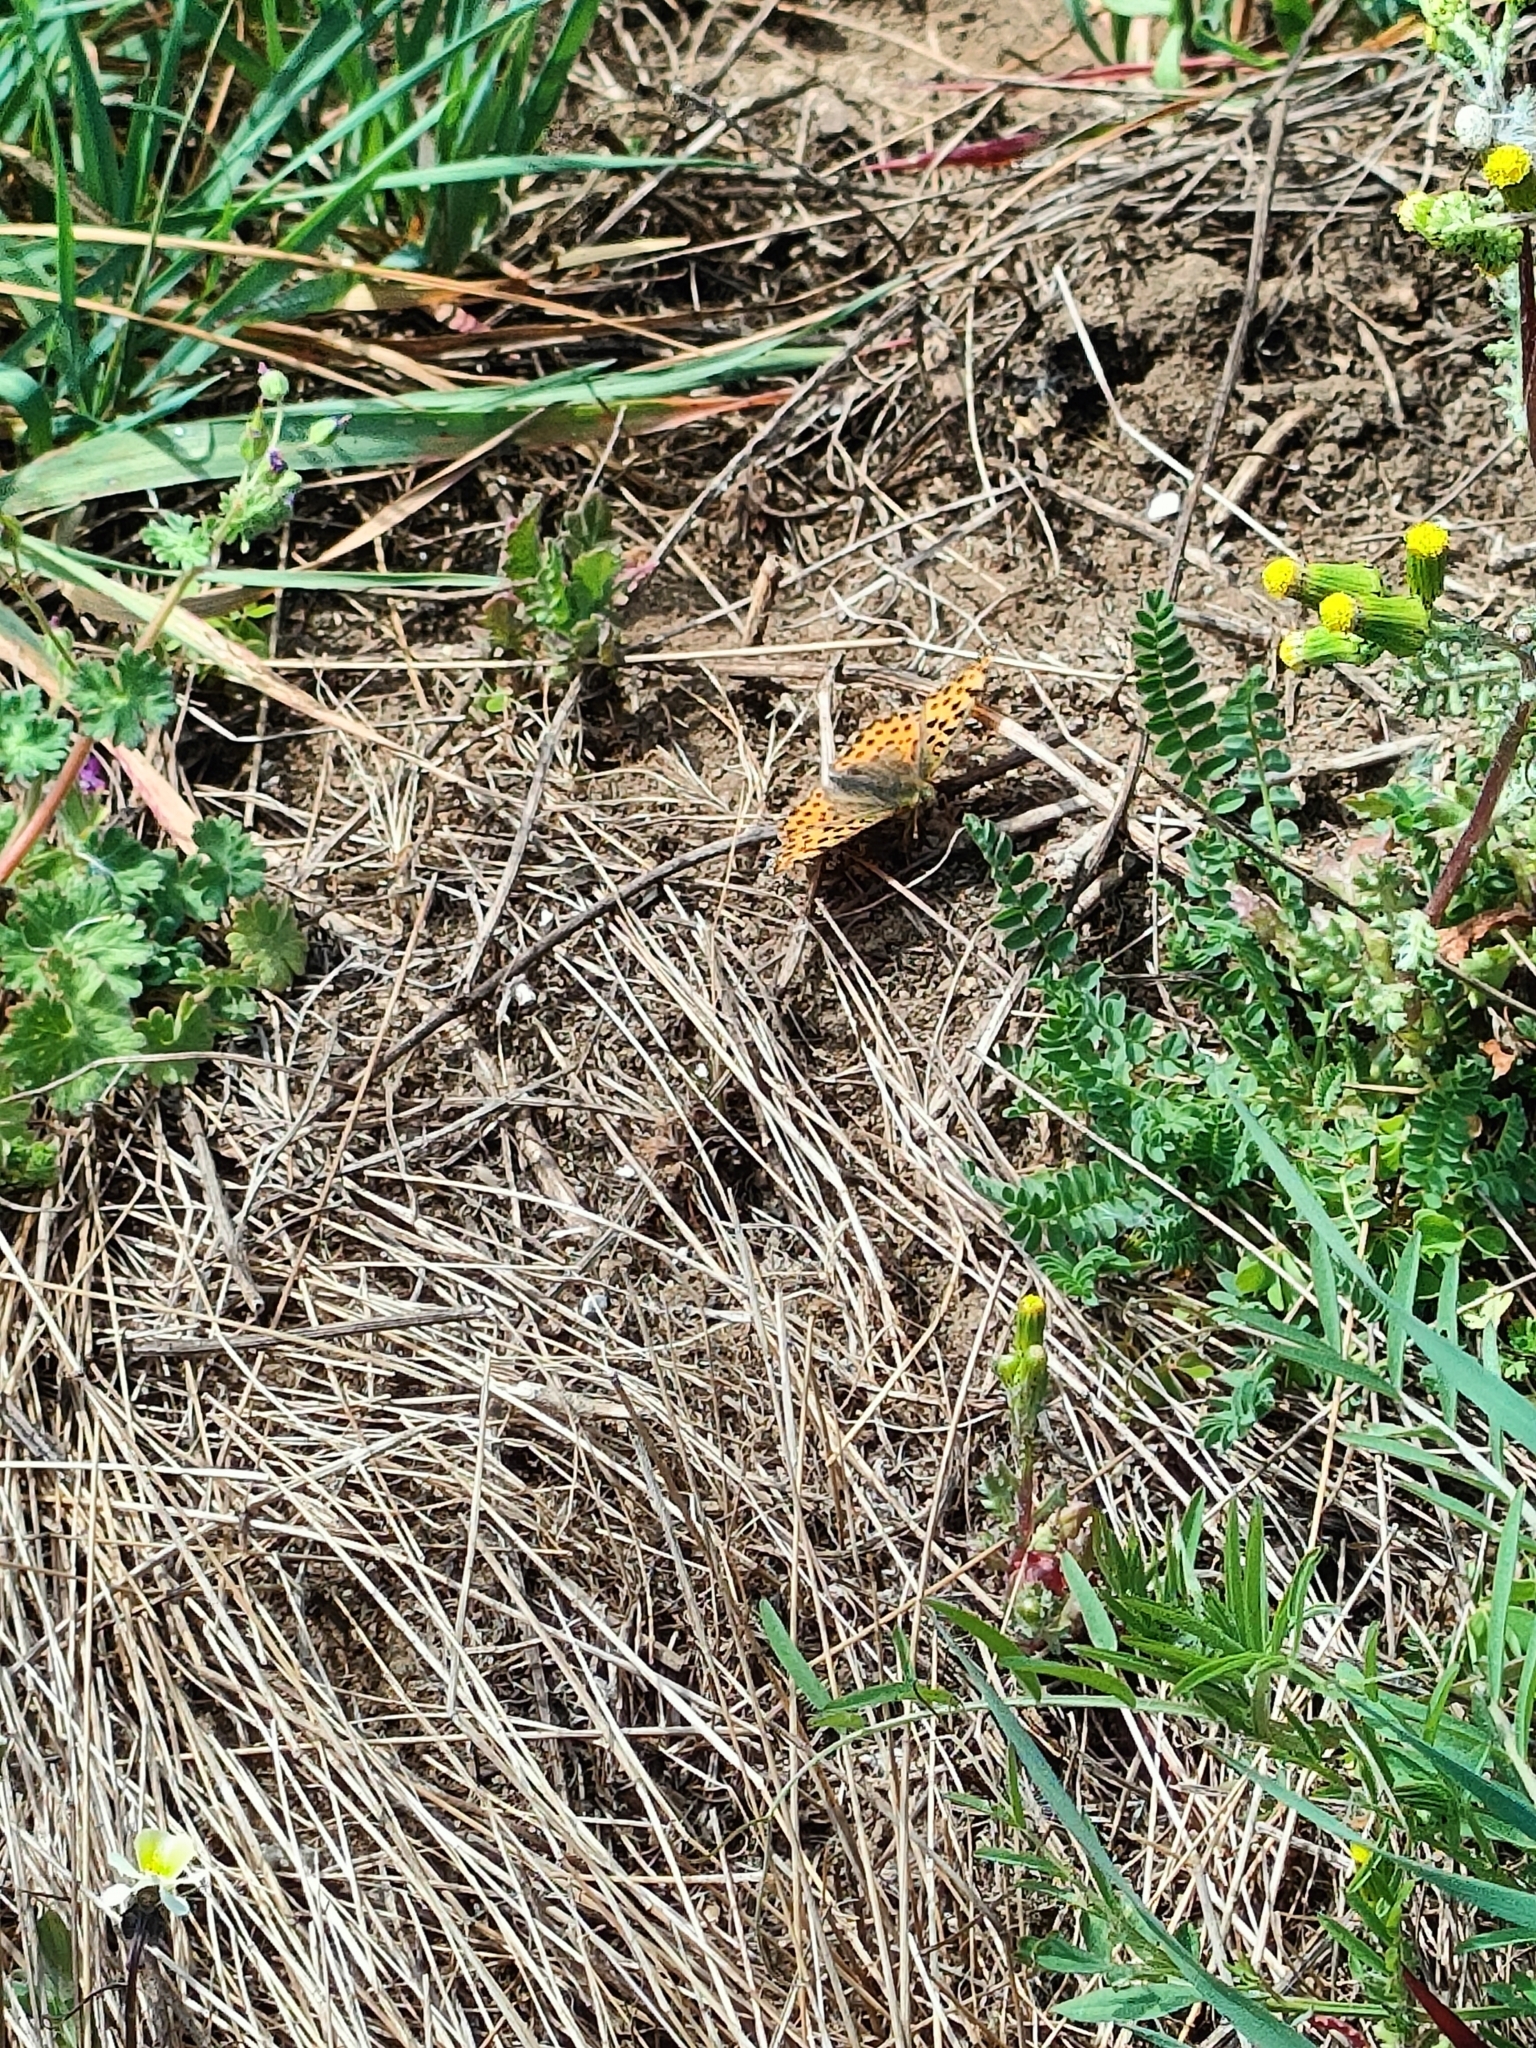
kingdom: Animalia
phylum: Arthropoda
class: Insecta
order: Lepidoptera
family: Nymphalidae
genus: Issoria
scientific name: Issoria lathonia
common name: Queen of spain fritillary
